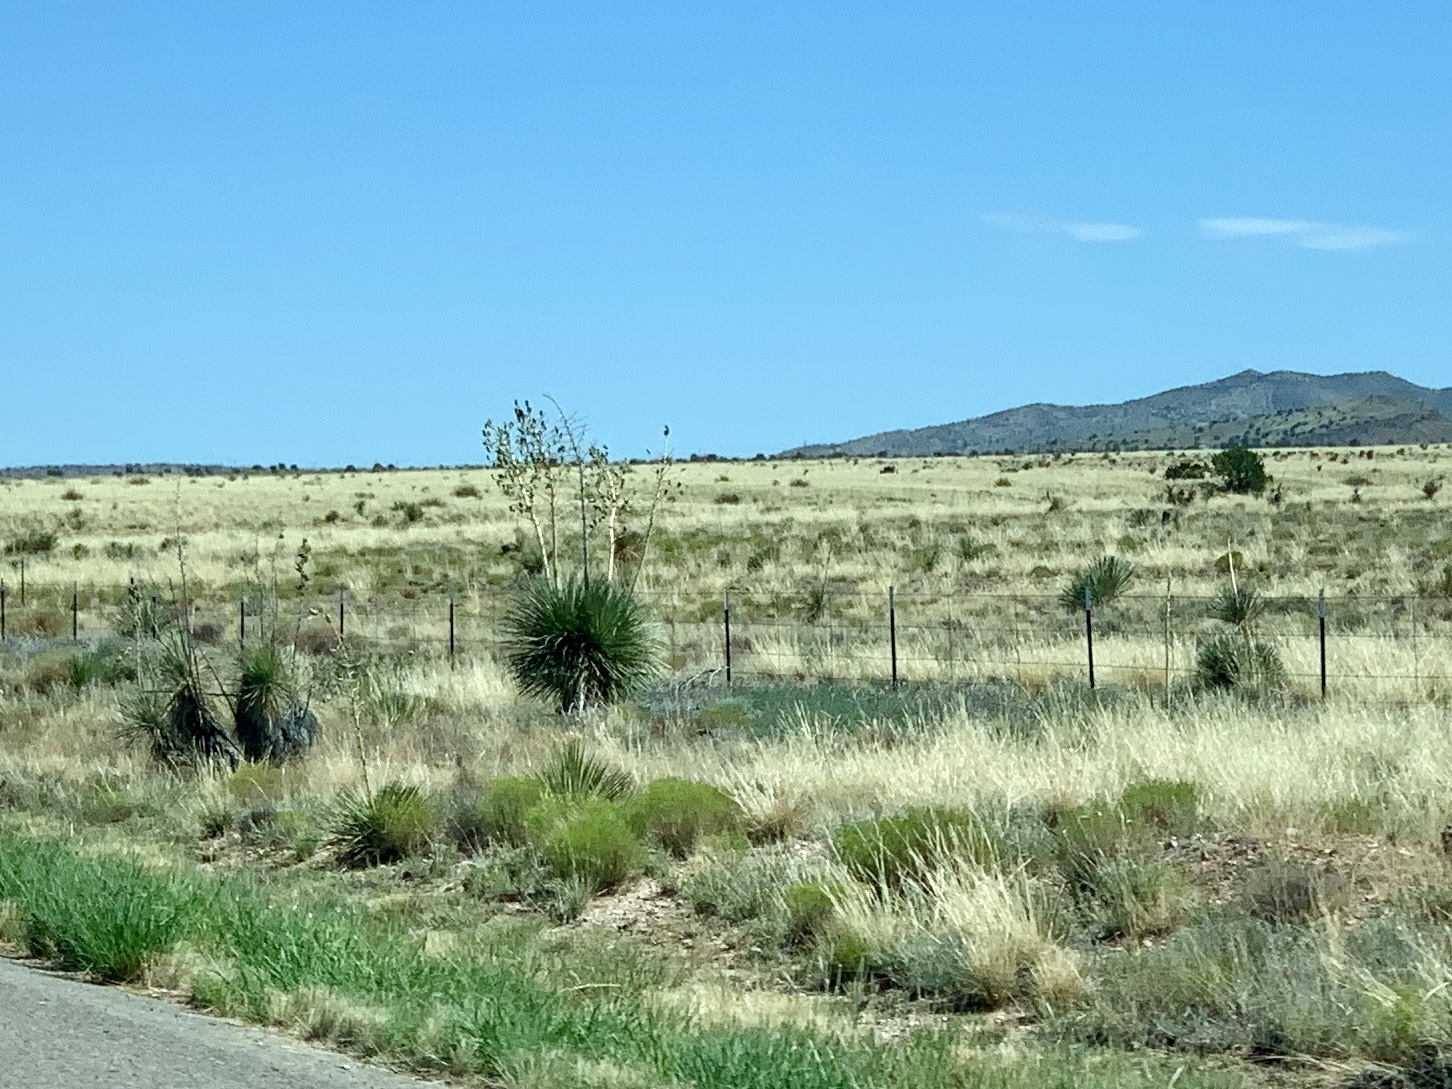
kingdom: Plantae
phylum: Tracheophyta
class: Liliopsida
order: Asparagales
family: Asparagaceae
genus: Yucca
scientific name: Yucca elata
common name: Palmella
